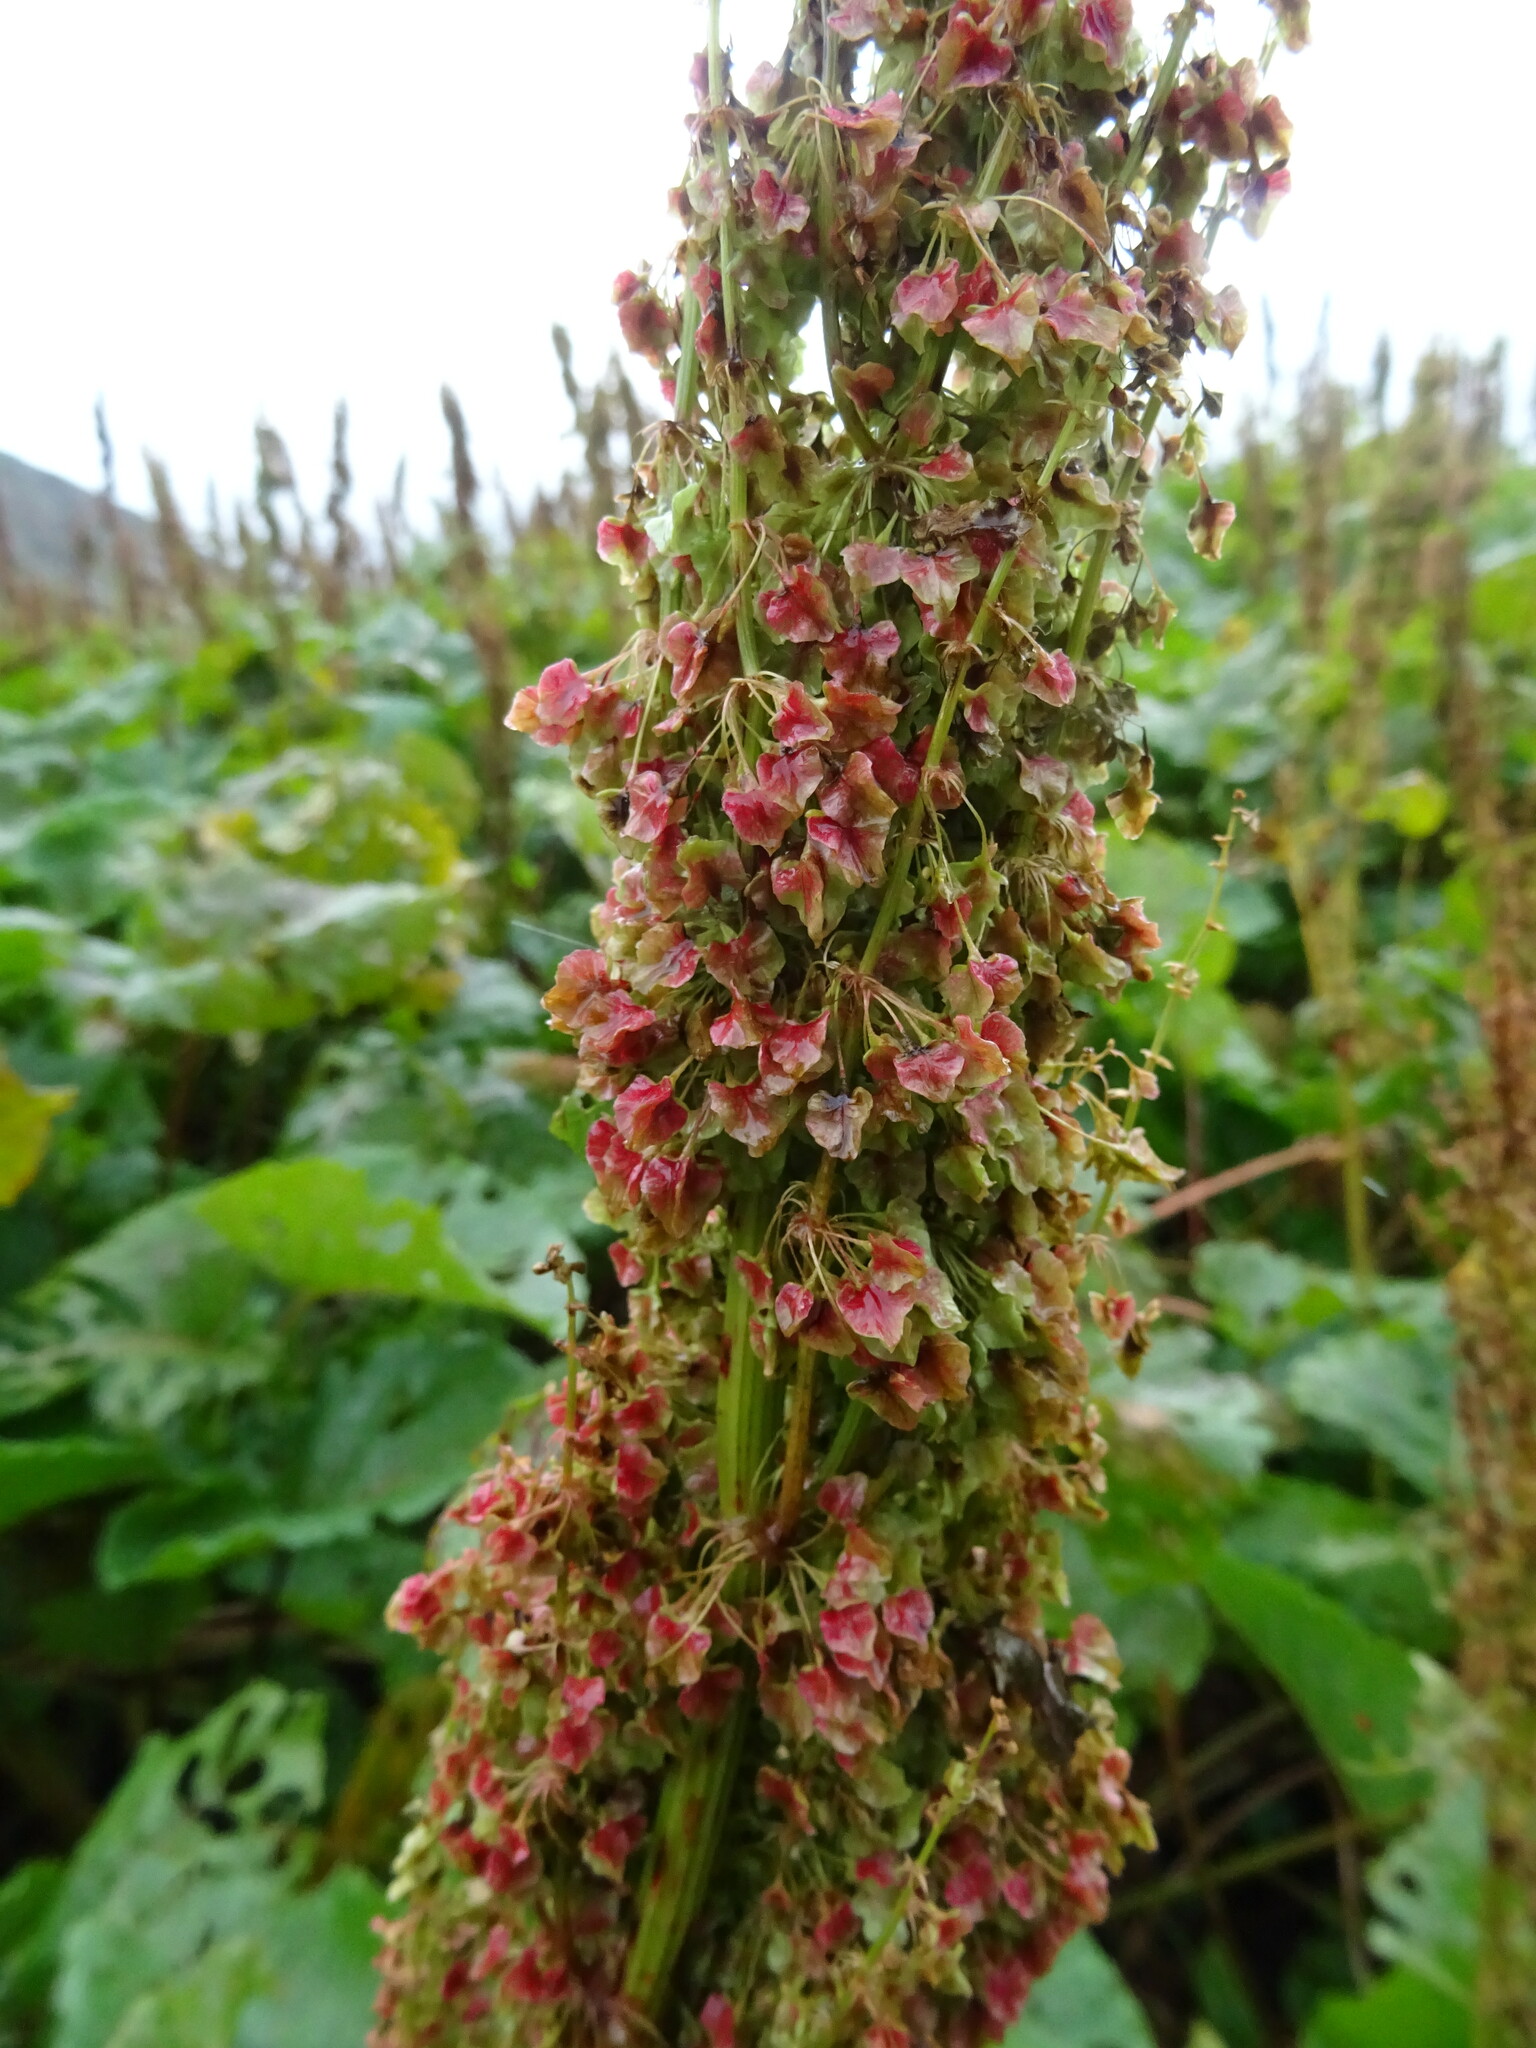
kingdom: Plantae
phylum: Tracheophyta
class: Magnoliopsida
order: Caryophyllales
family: Polygonaceae
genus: Rumex
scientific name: Rumex alpinus
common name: Alpine dock
